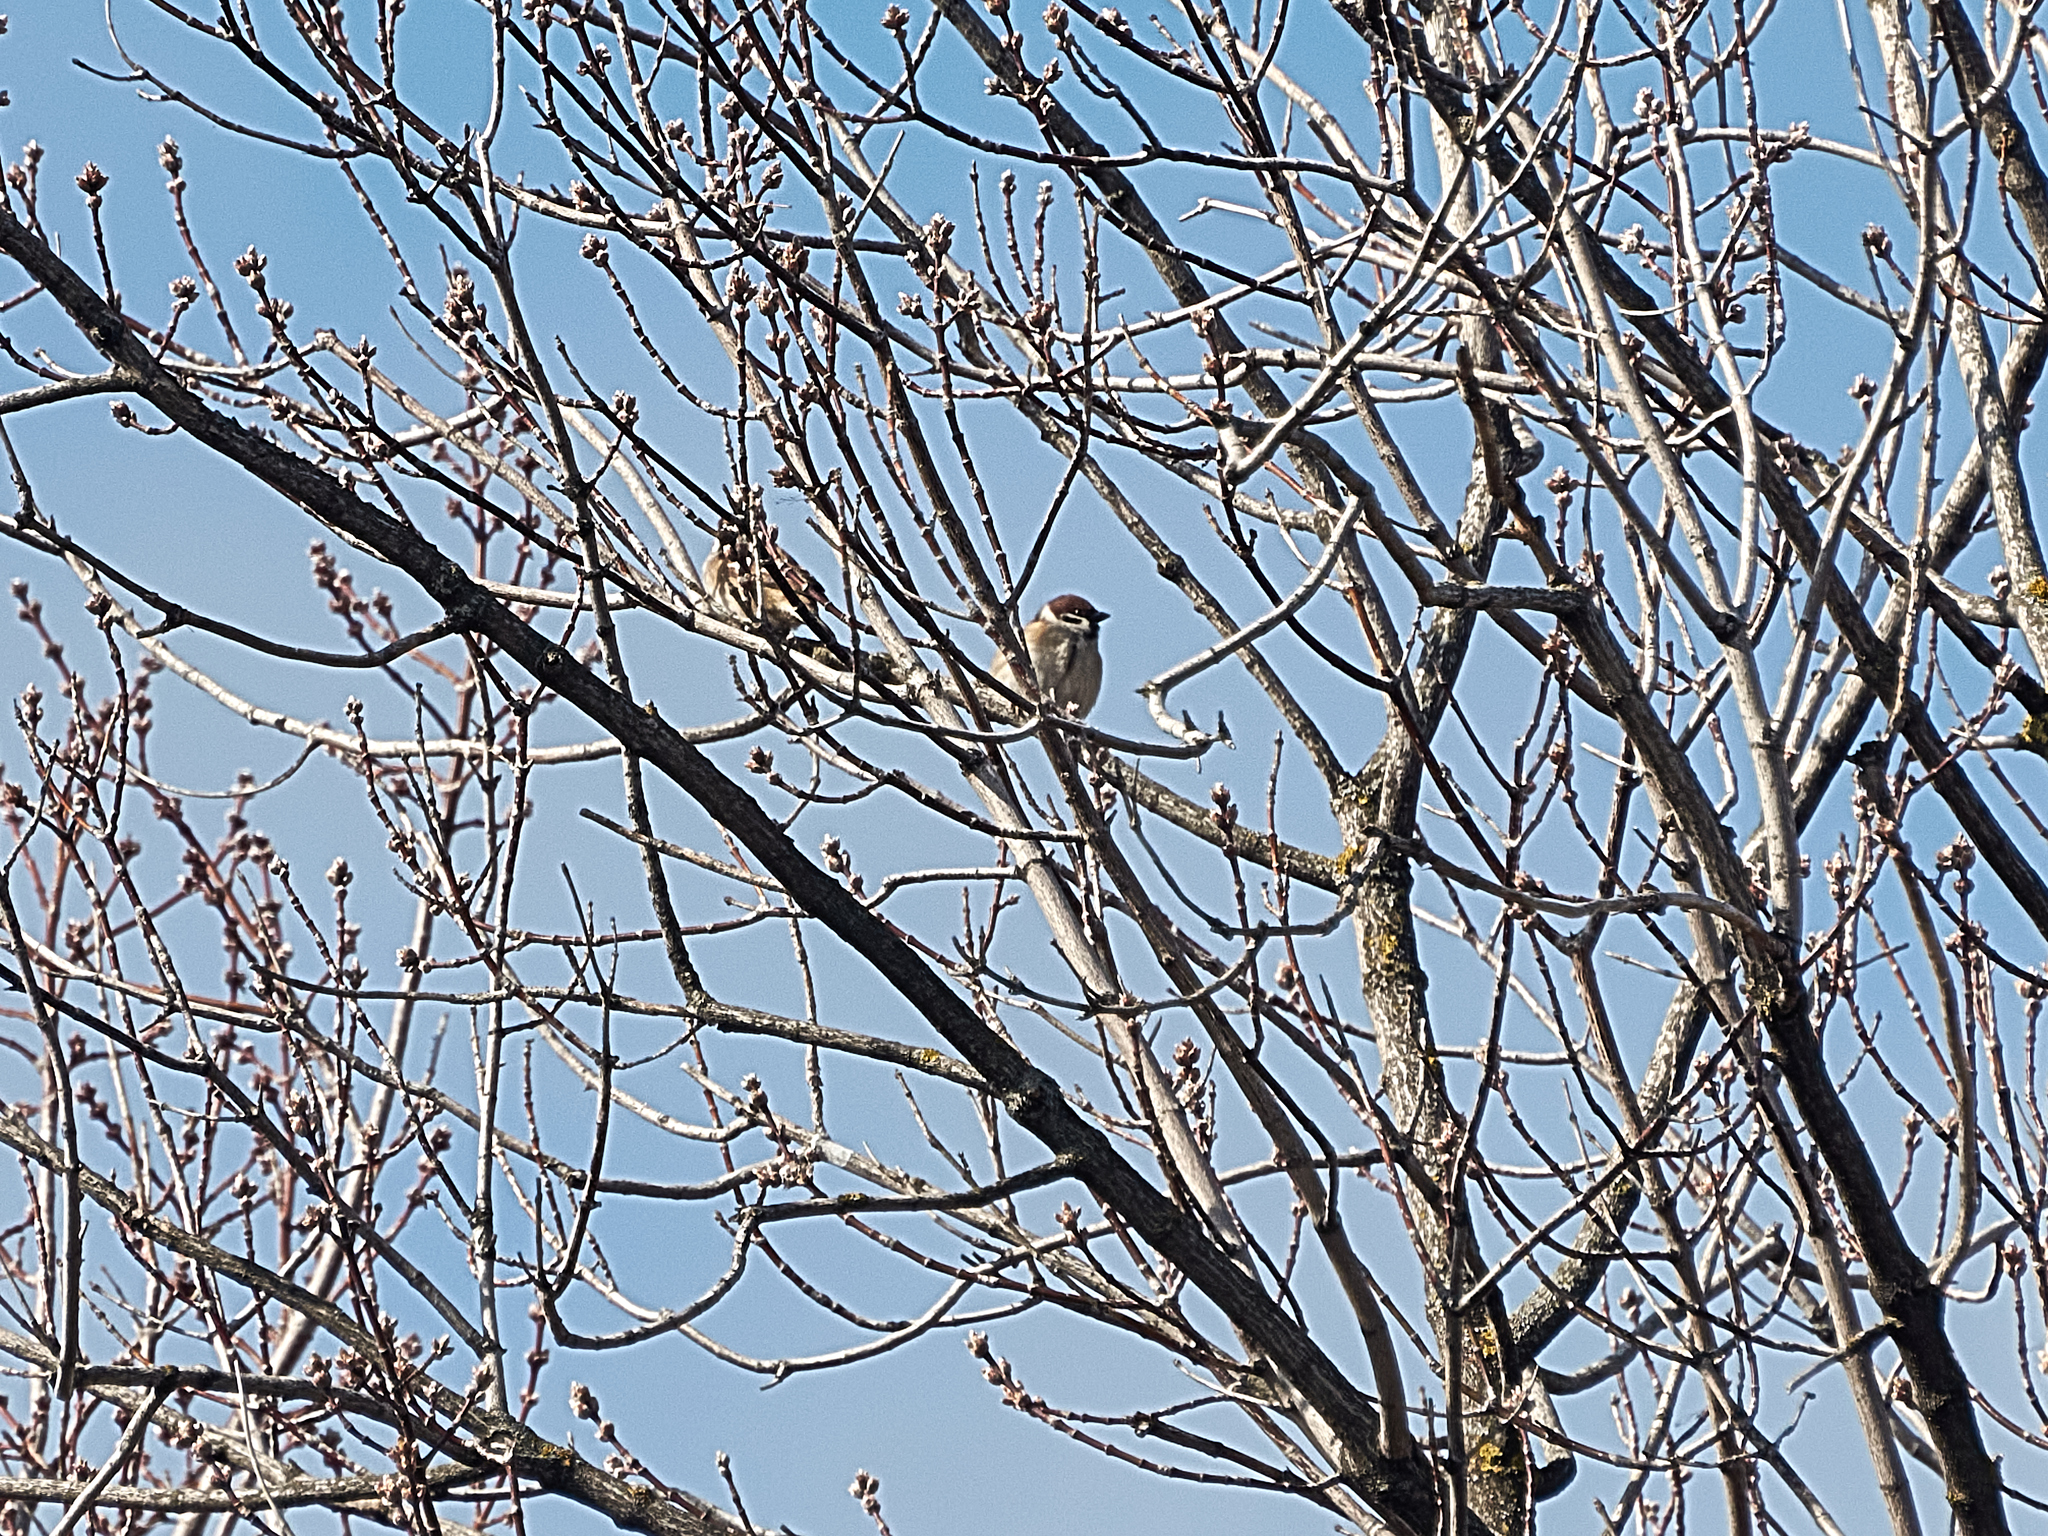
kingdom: Animalia
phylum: Chordata
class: Aves
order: Passeriformes
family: Passeridae
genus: Passer
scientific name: Passer montanus
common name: Eurasian tree sparrow
